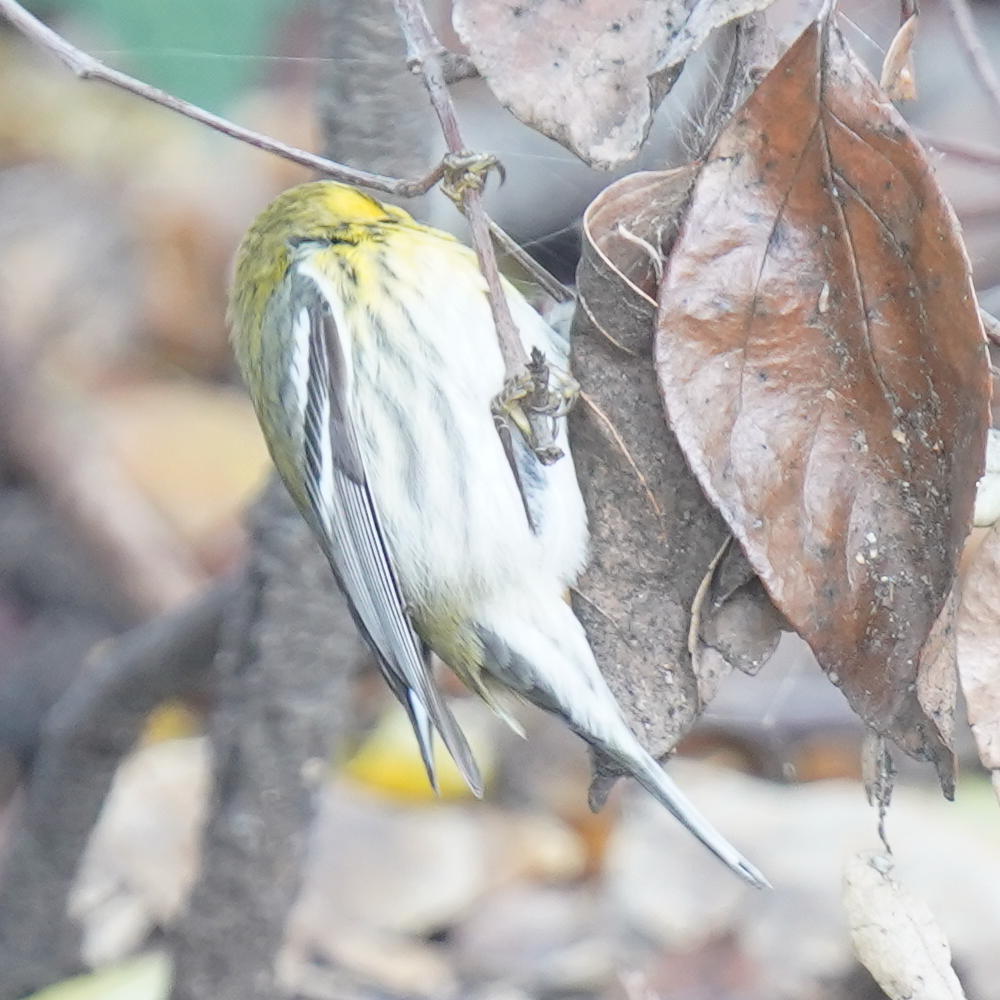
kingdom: Animalia
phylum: Chordata
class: Aves
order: Passeriformes
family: Parulidae
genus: Setophaga
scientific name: Setophaga townsendi
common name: Townsend's warbler
